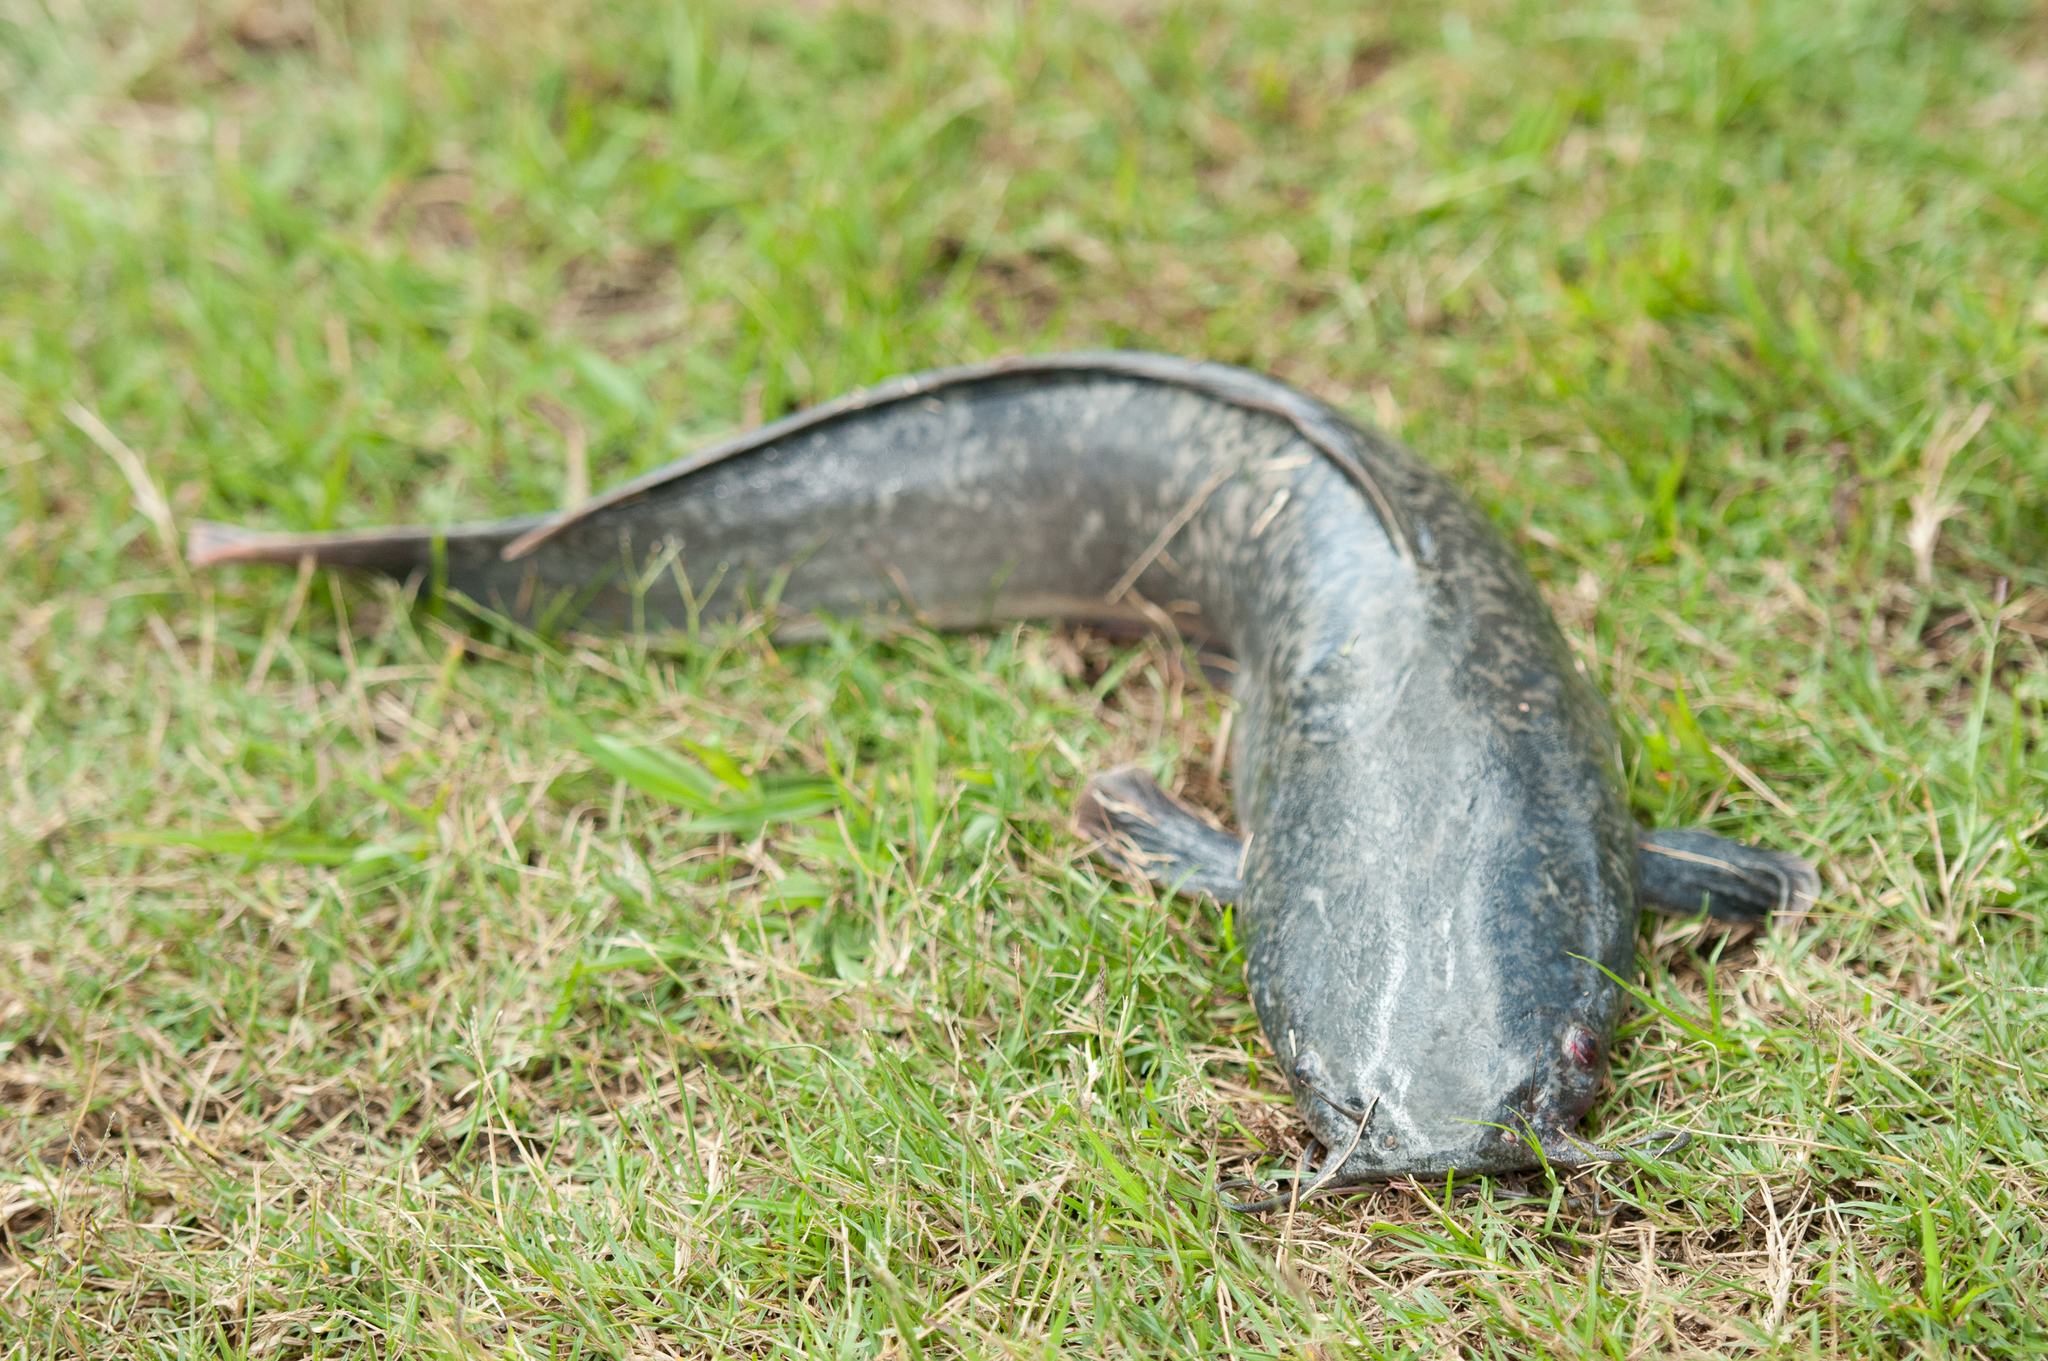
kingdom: Animalia
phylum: Chordata
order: Siluriformes
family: Clariidae
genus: Clarias
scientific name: Clarias gariepinus
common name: African catfish
